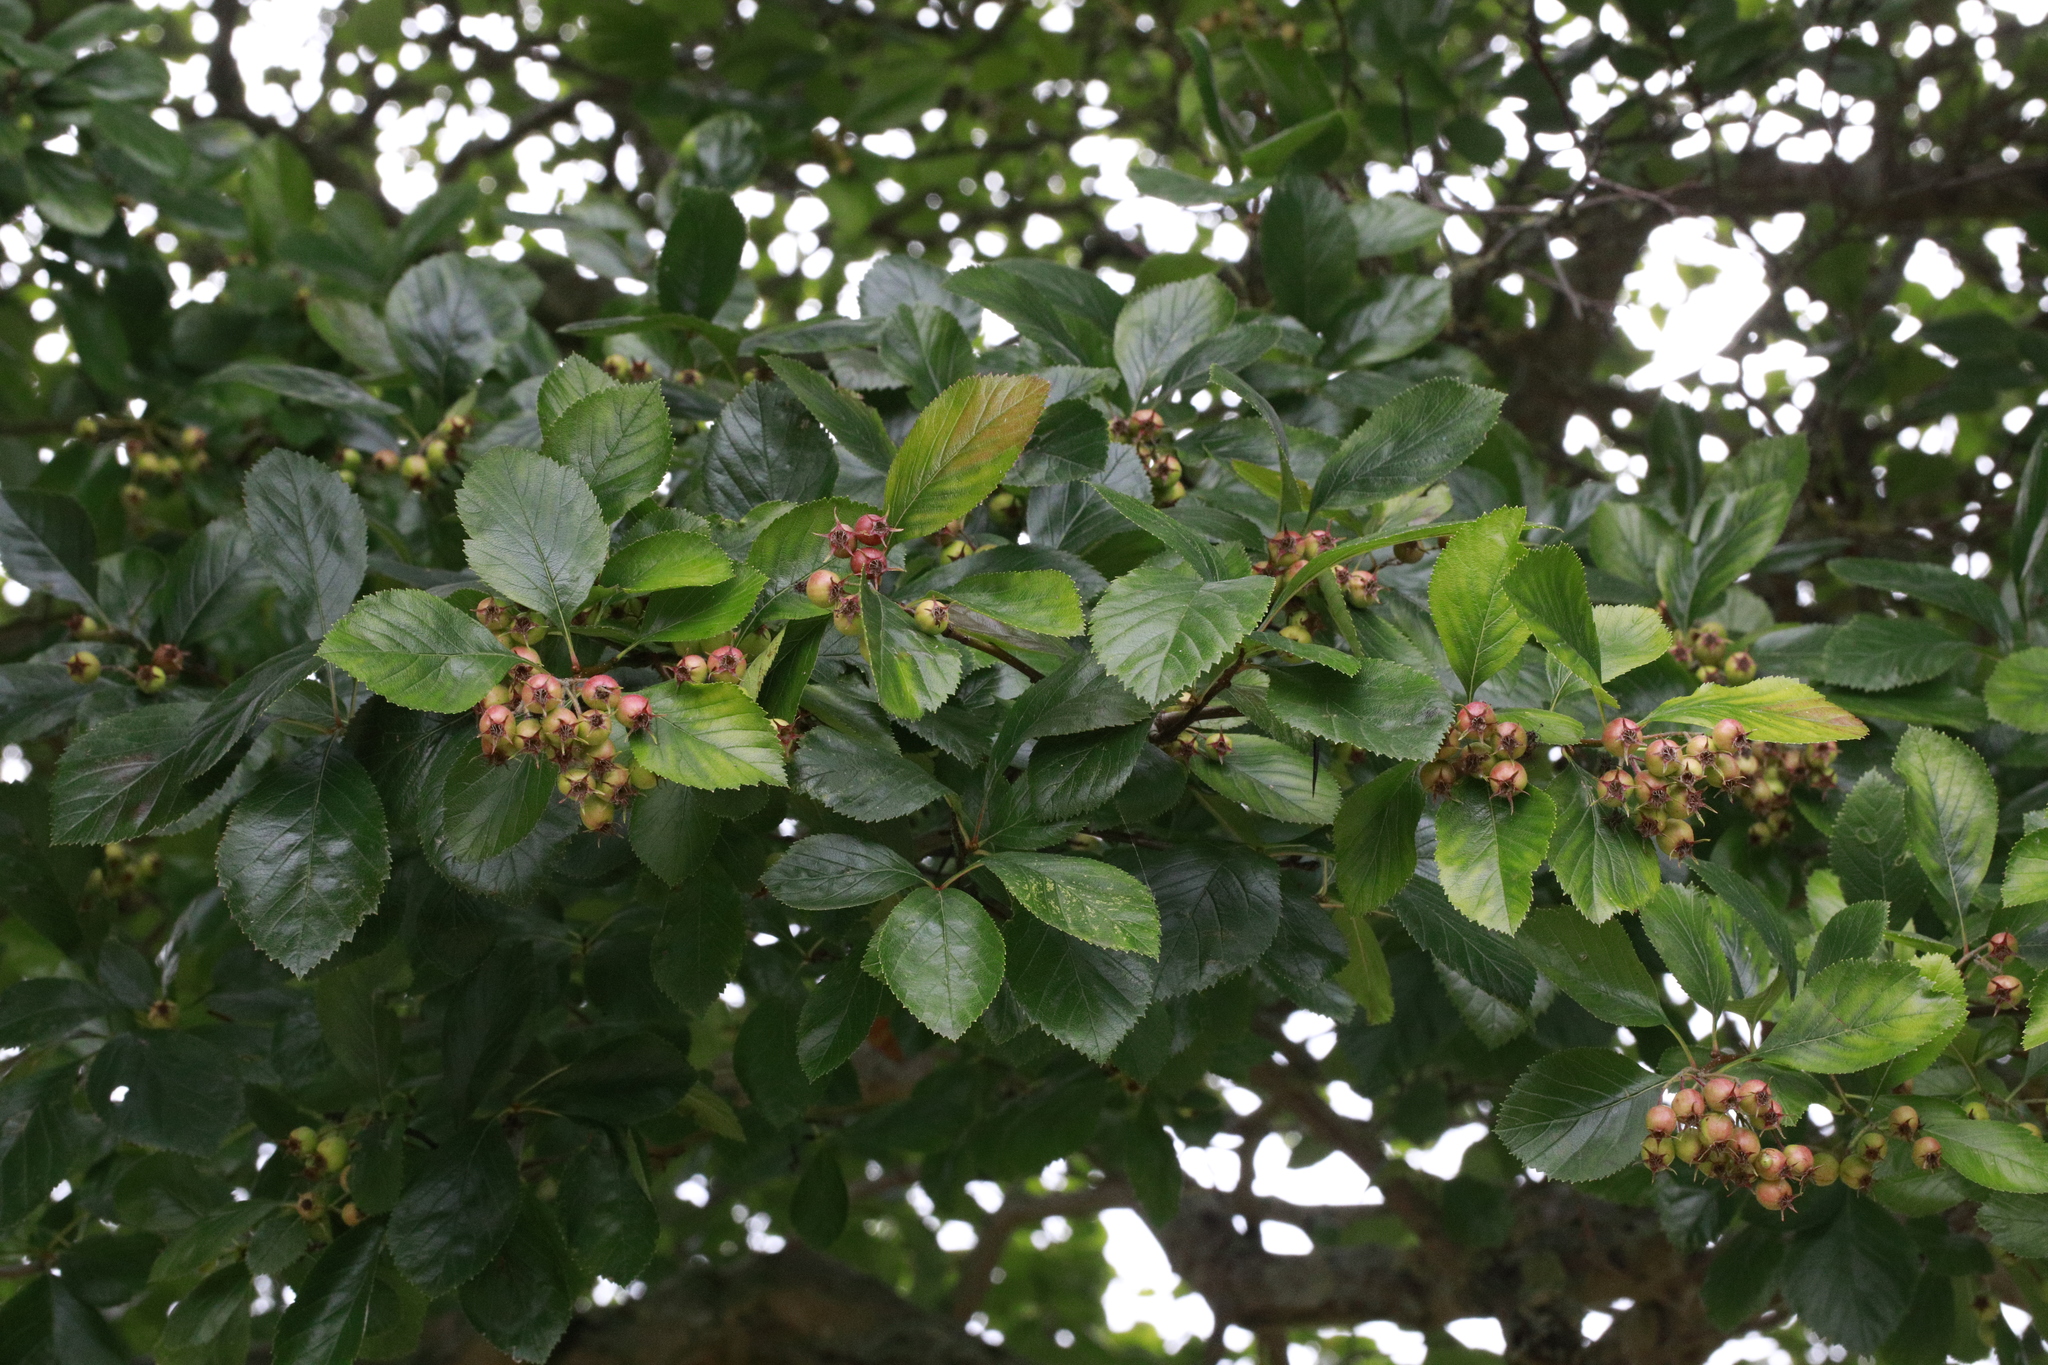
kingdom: Plantae
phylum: Tracheophyta
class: Magnoliopsida
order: Rosales
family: Rosaceae
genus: Crataegus
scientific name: Crataegus persimilis
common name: Broad-leaved cockspurthorn
